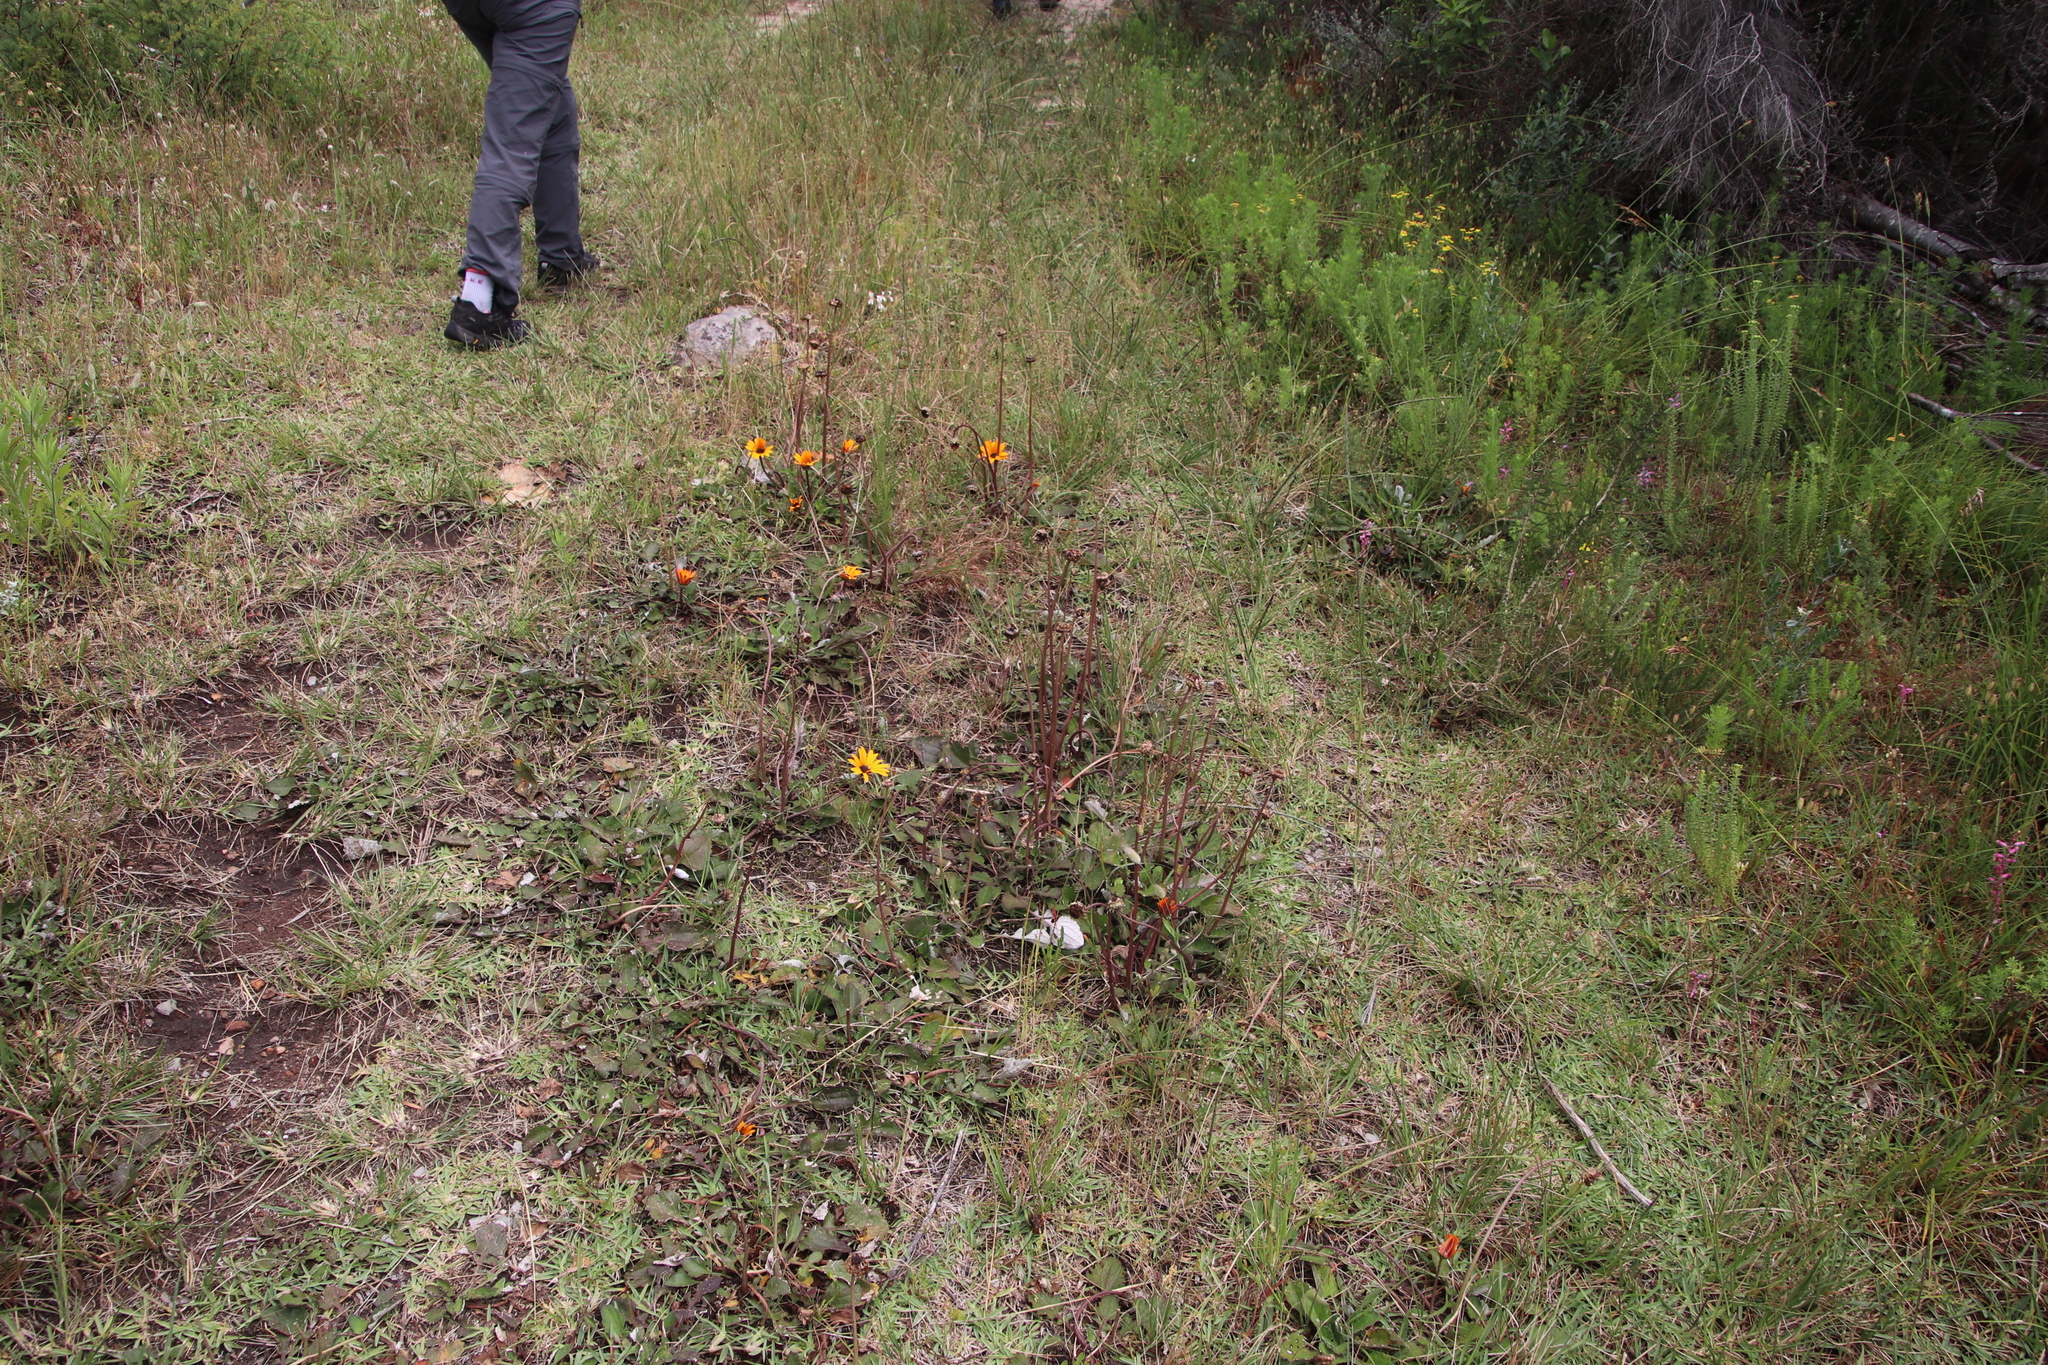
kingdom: Plantae
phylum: Tracheophyta
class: Magnoliopsida
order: Asterales
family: Asteraceae
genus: Arctotis
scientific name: Arctotis acaulis
